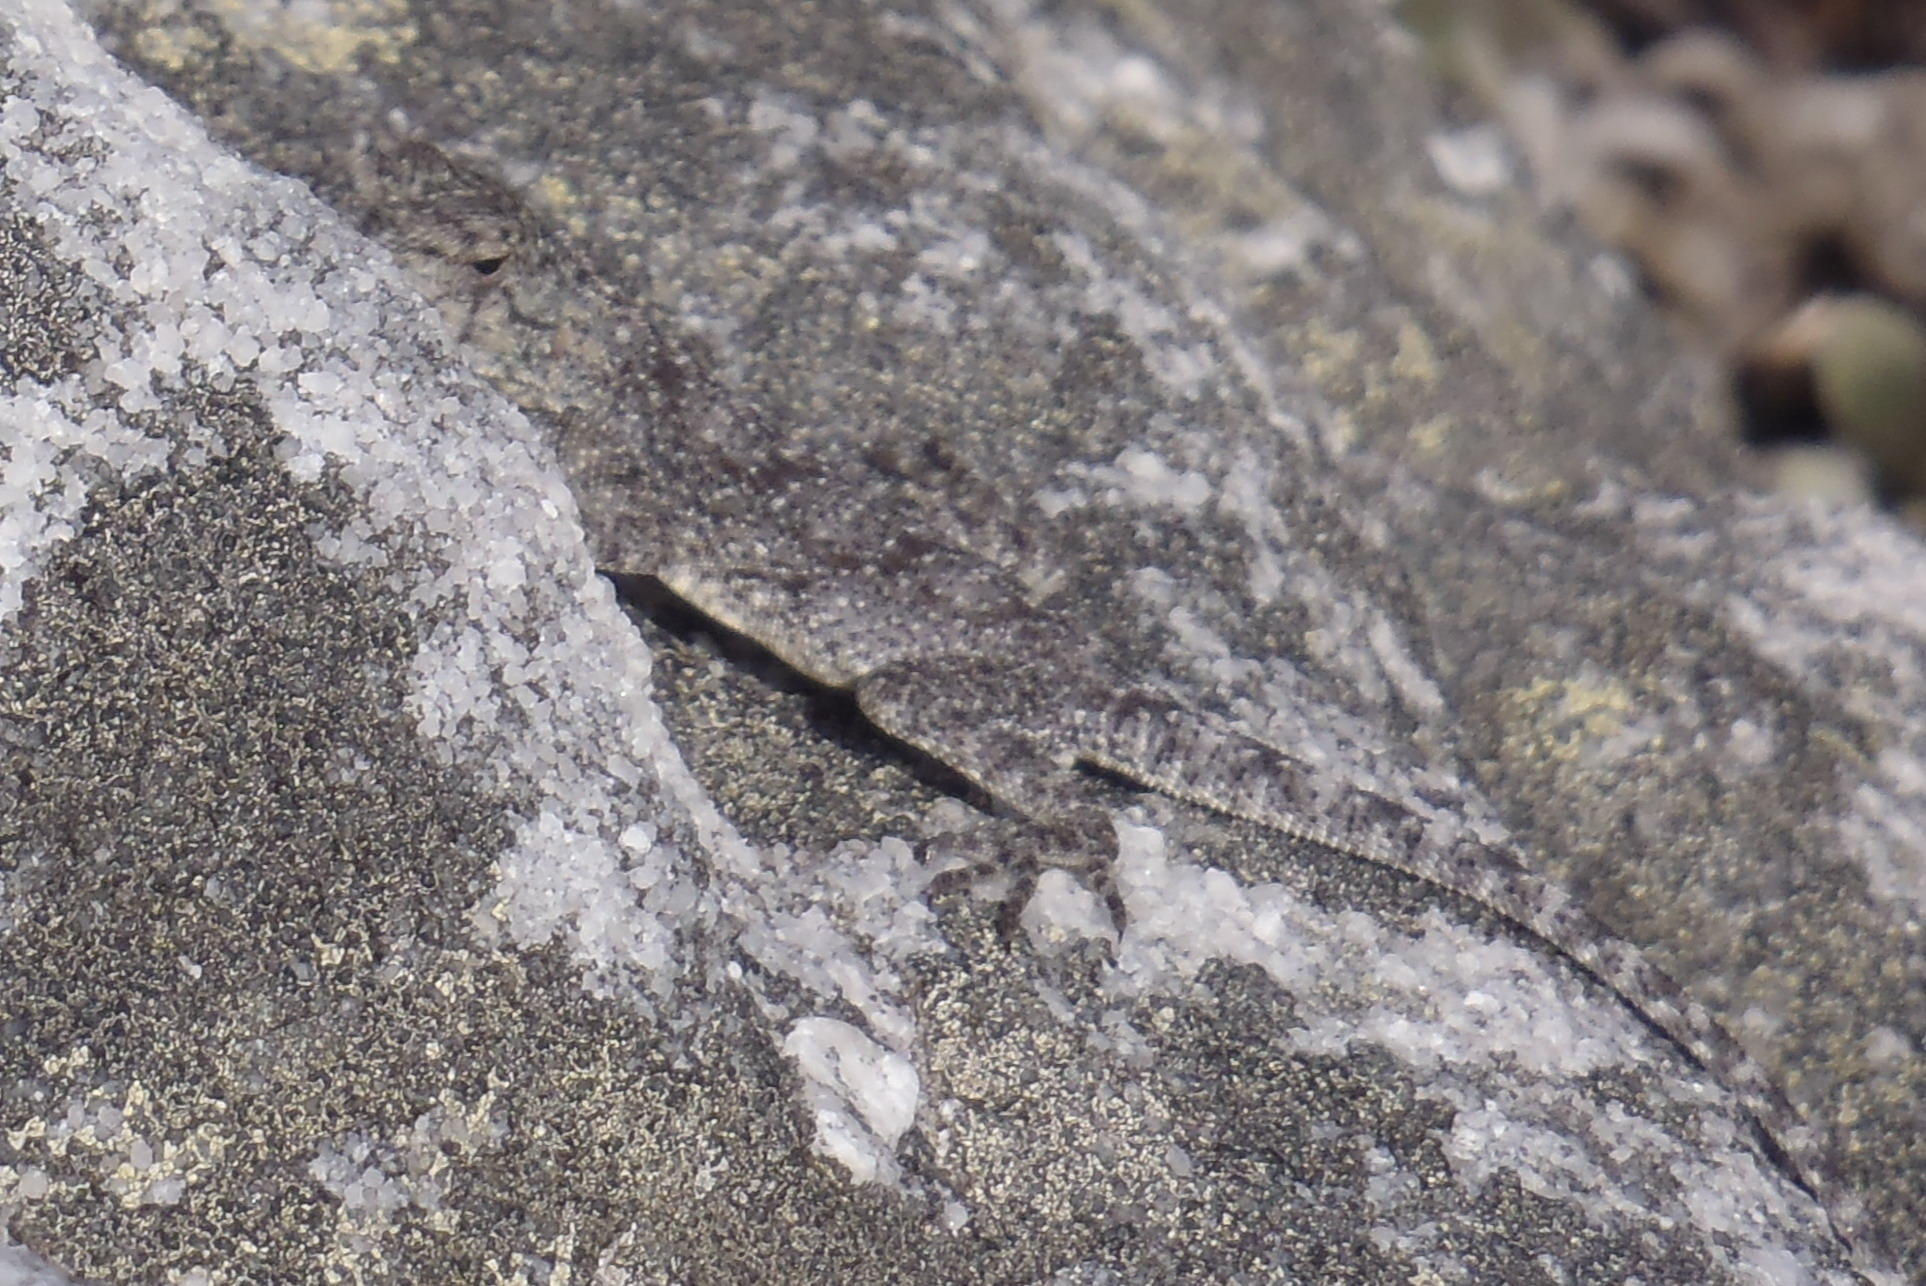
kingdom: Animalia
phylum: Chordata
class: Squamata
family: Agamidae
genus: Agama
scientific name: Agama atra
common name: Southern african rock agama
